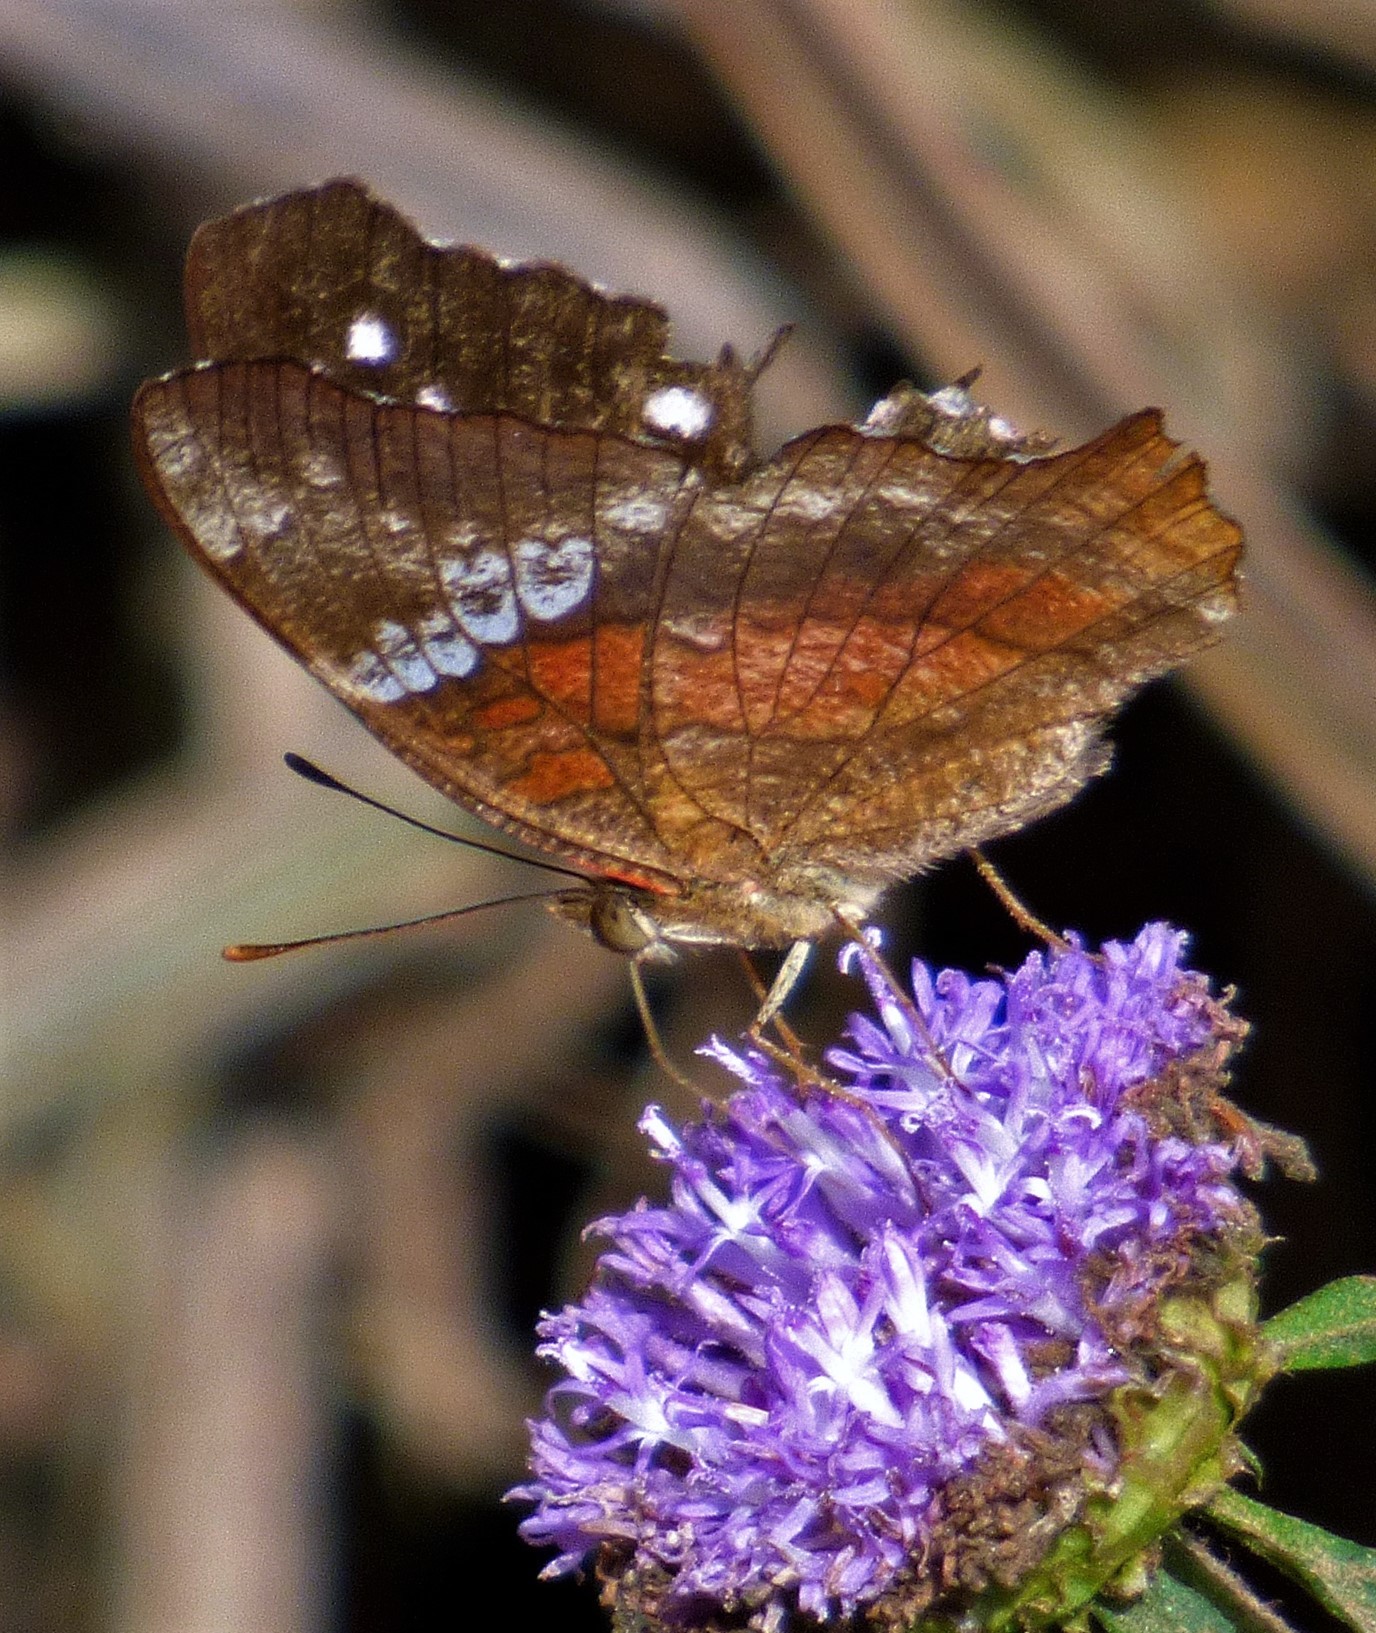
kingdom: Animalia
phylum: Arthropoda
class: Insecta
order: Lepidoptera
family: Nymphalidae
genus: Anartia
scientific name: Anartia amathea
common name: Red peacock
